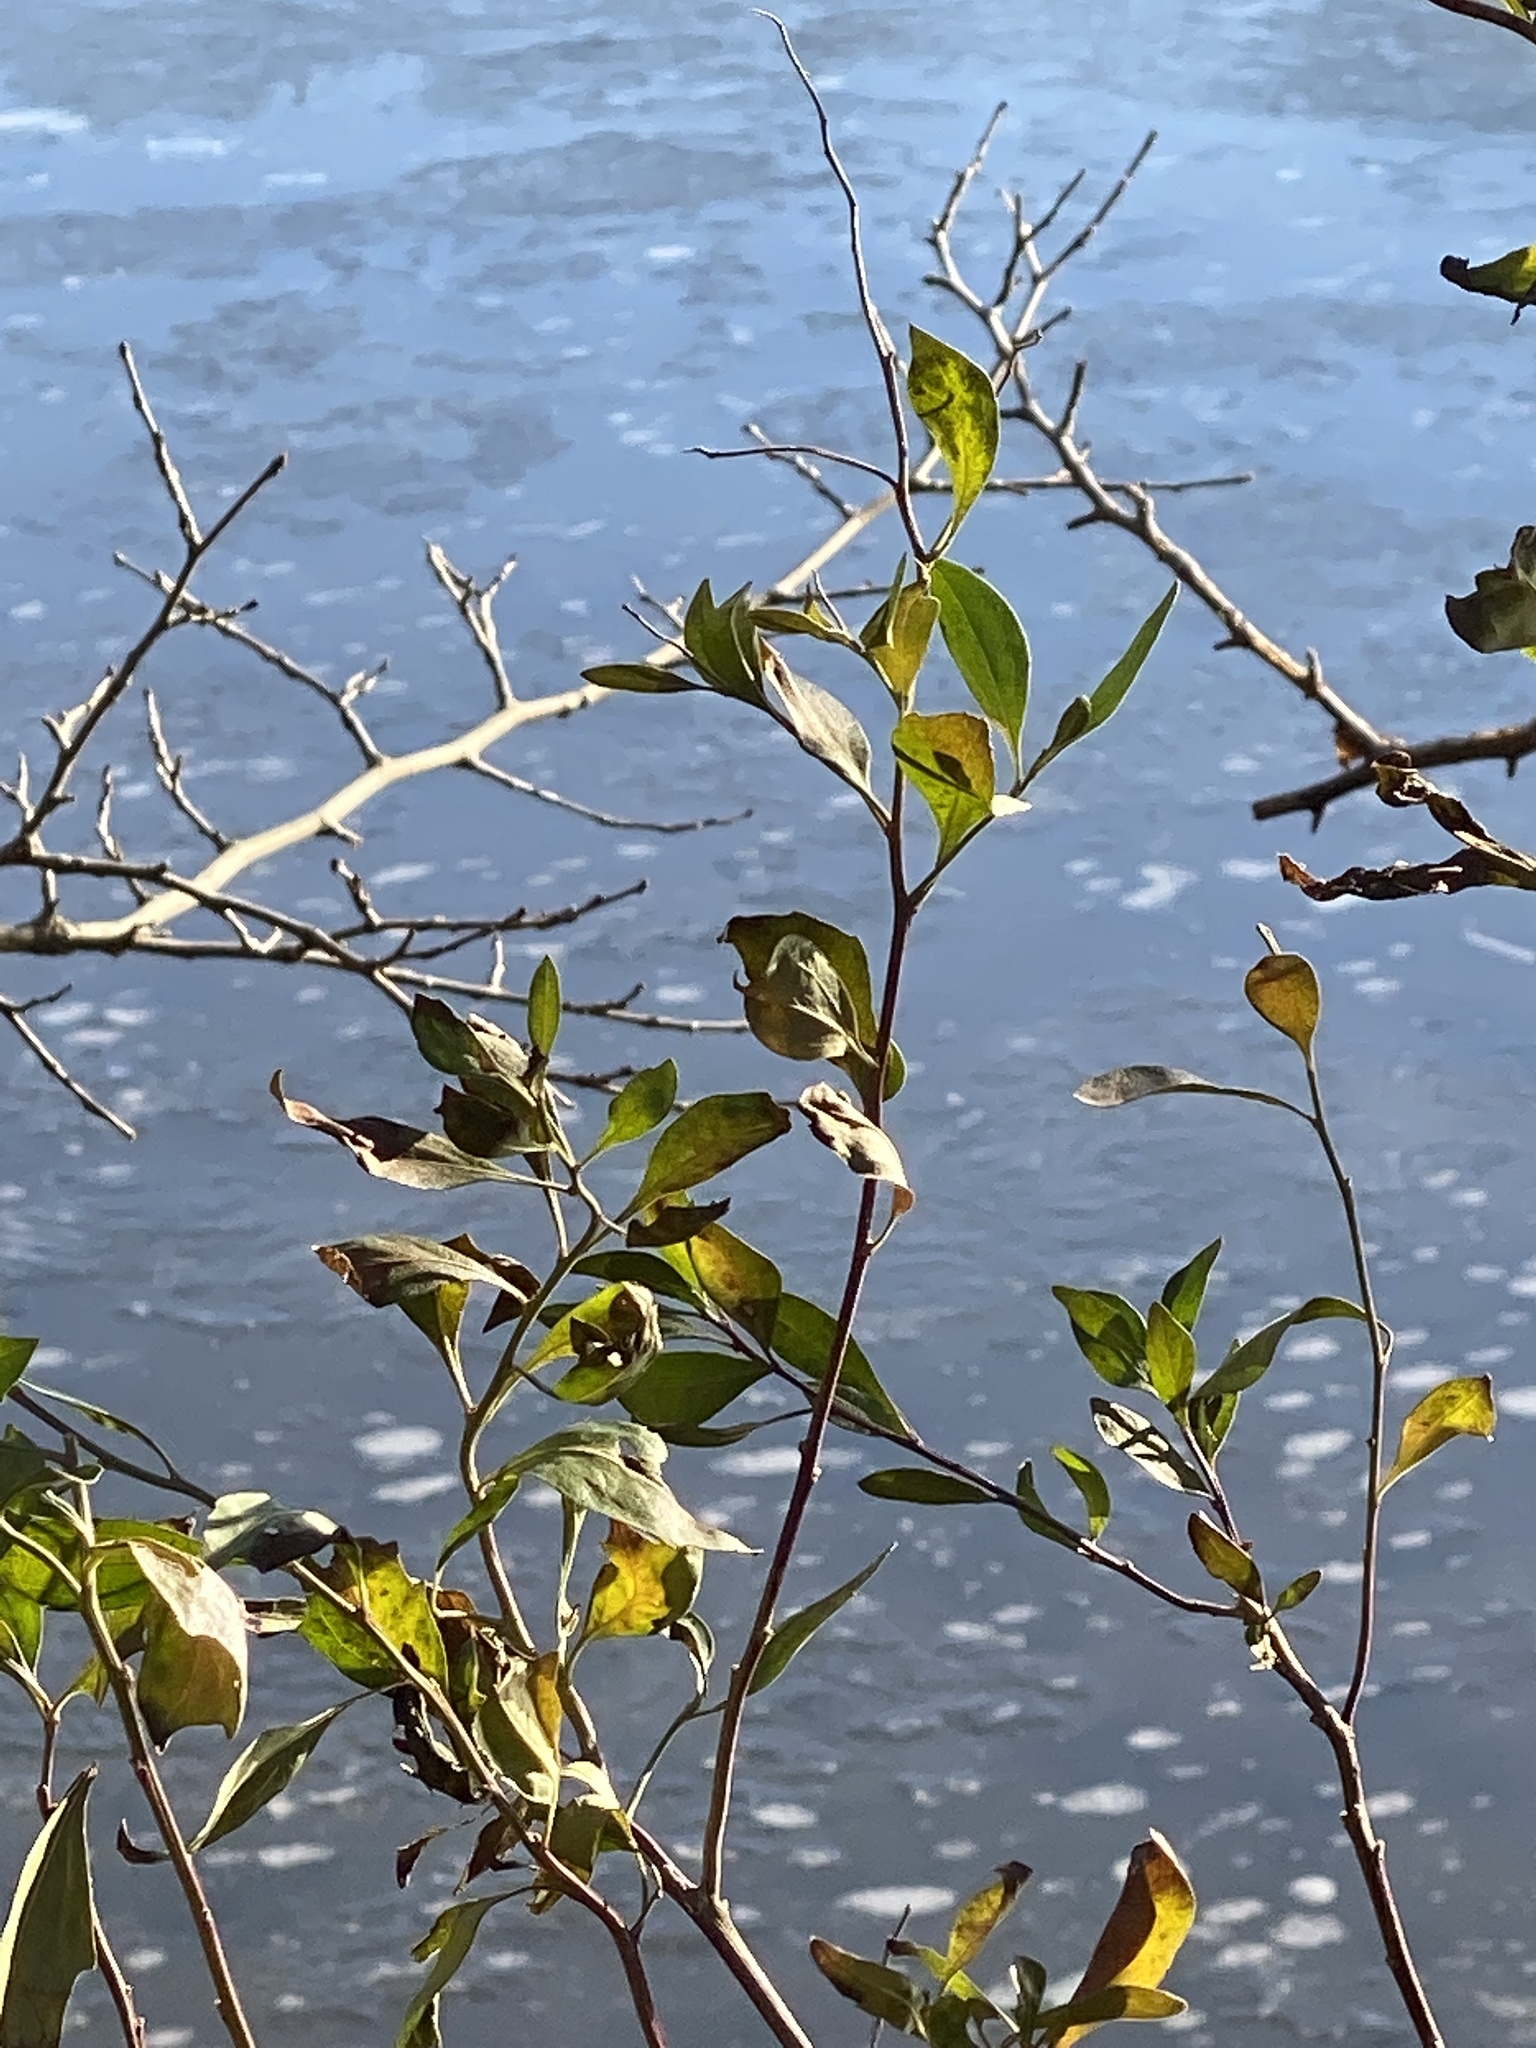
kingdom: Plantae
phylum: Tracheophyta
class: Magnoliopsida
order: Asterales
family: Asteraceae
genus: Baccharis
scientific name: Baccharis halimifolia
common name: Eastern baccharis
